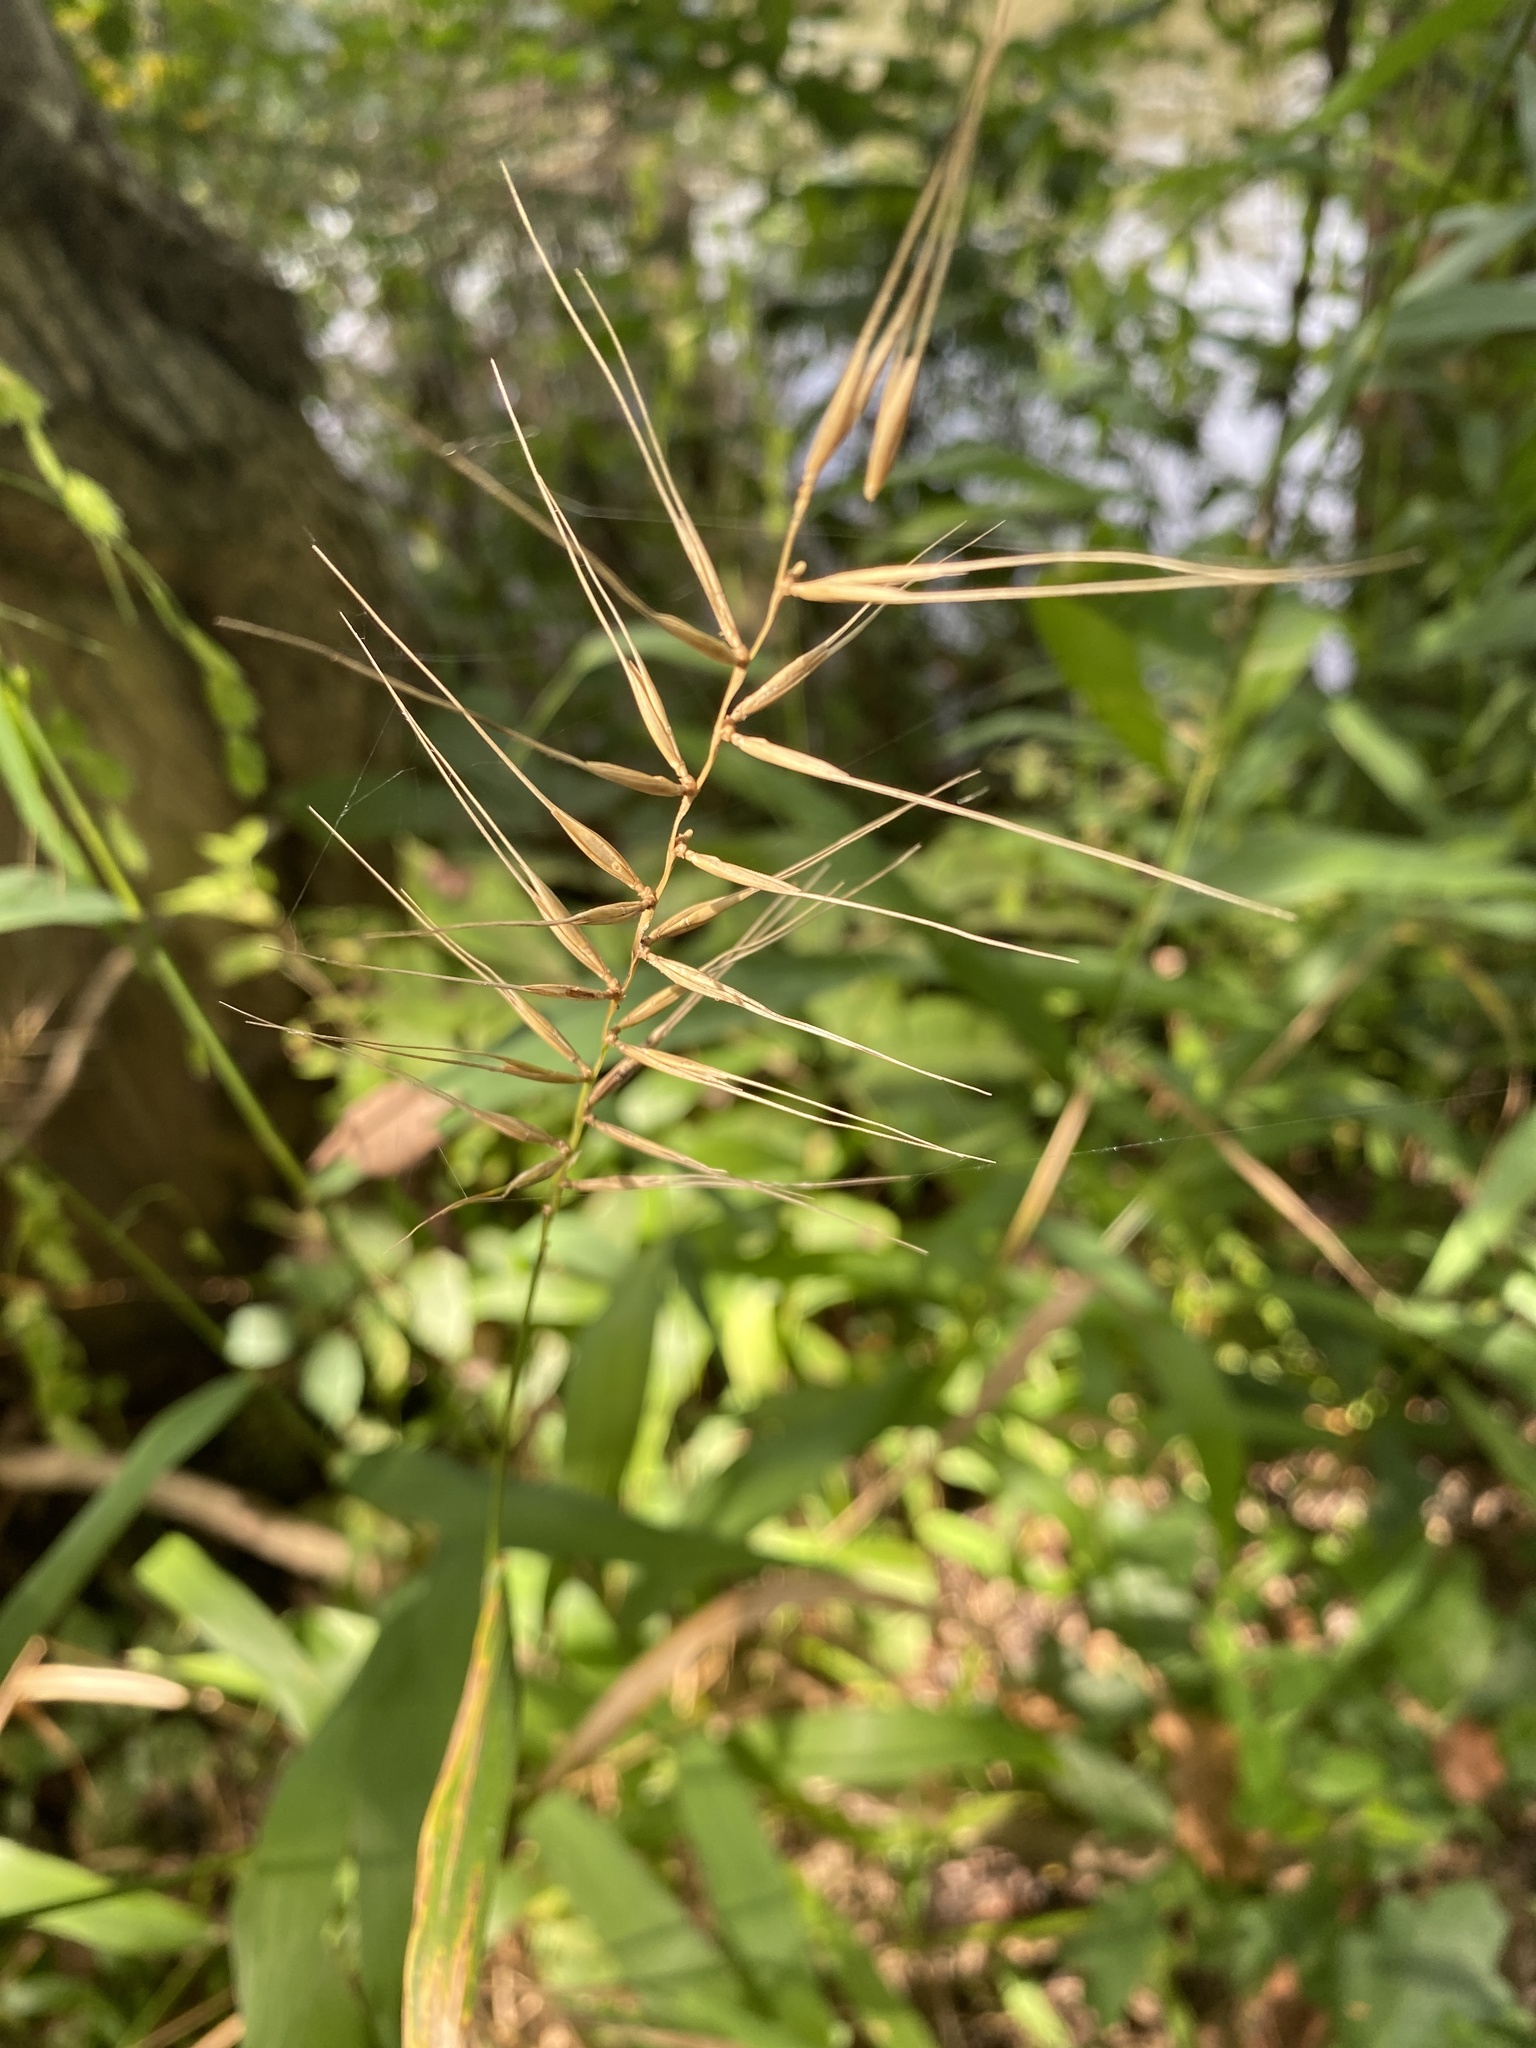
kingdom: Plantae
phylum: Tracheophyta
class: Liliopsida
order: Poales
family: Poaceae
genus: Elymus
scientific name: Elymus hystrix
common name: Bottlebrush grass
